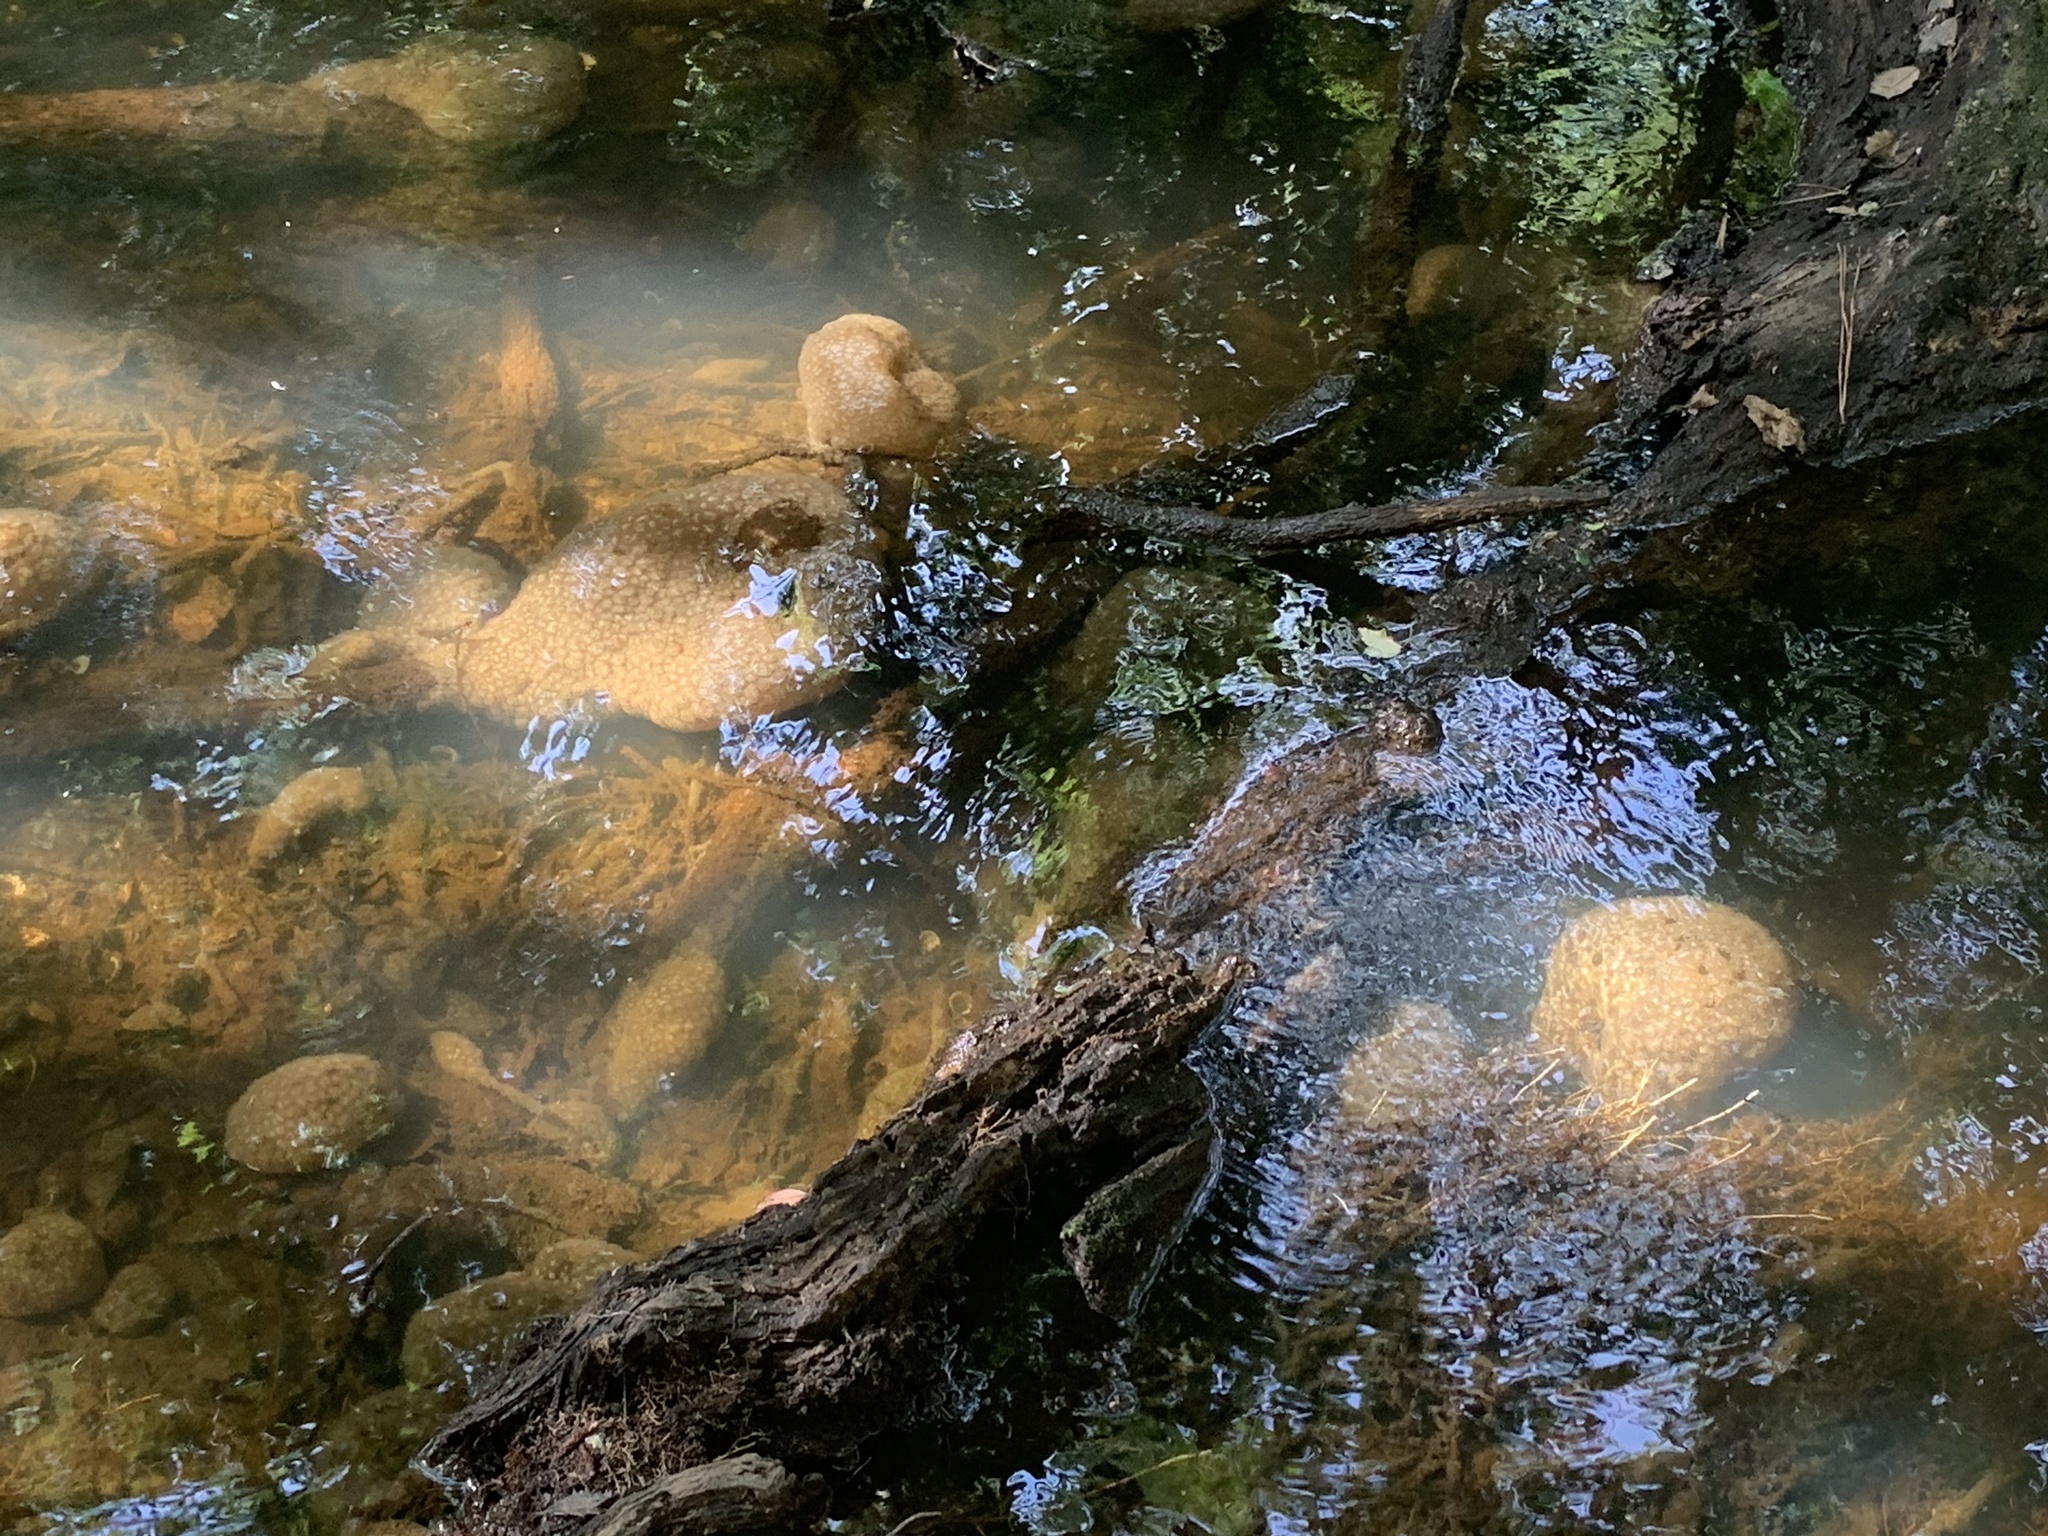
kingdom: Animalia
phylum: Bryozoa
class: Phylactolaemata
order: Plumatellida
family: Pectinatellidae
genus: Pectinatella
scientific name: Pectinatella magnifica
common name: Magnificent bryozoan
